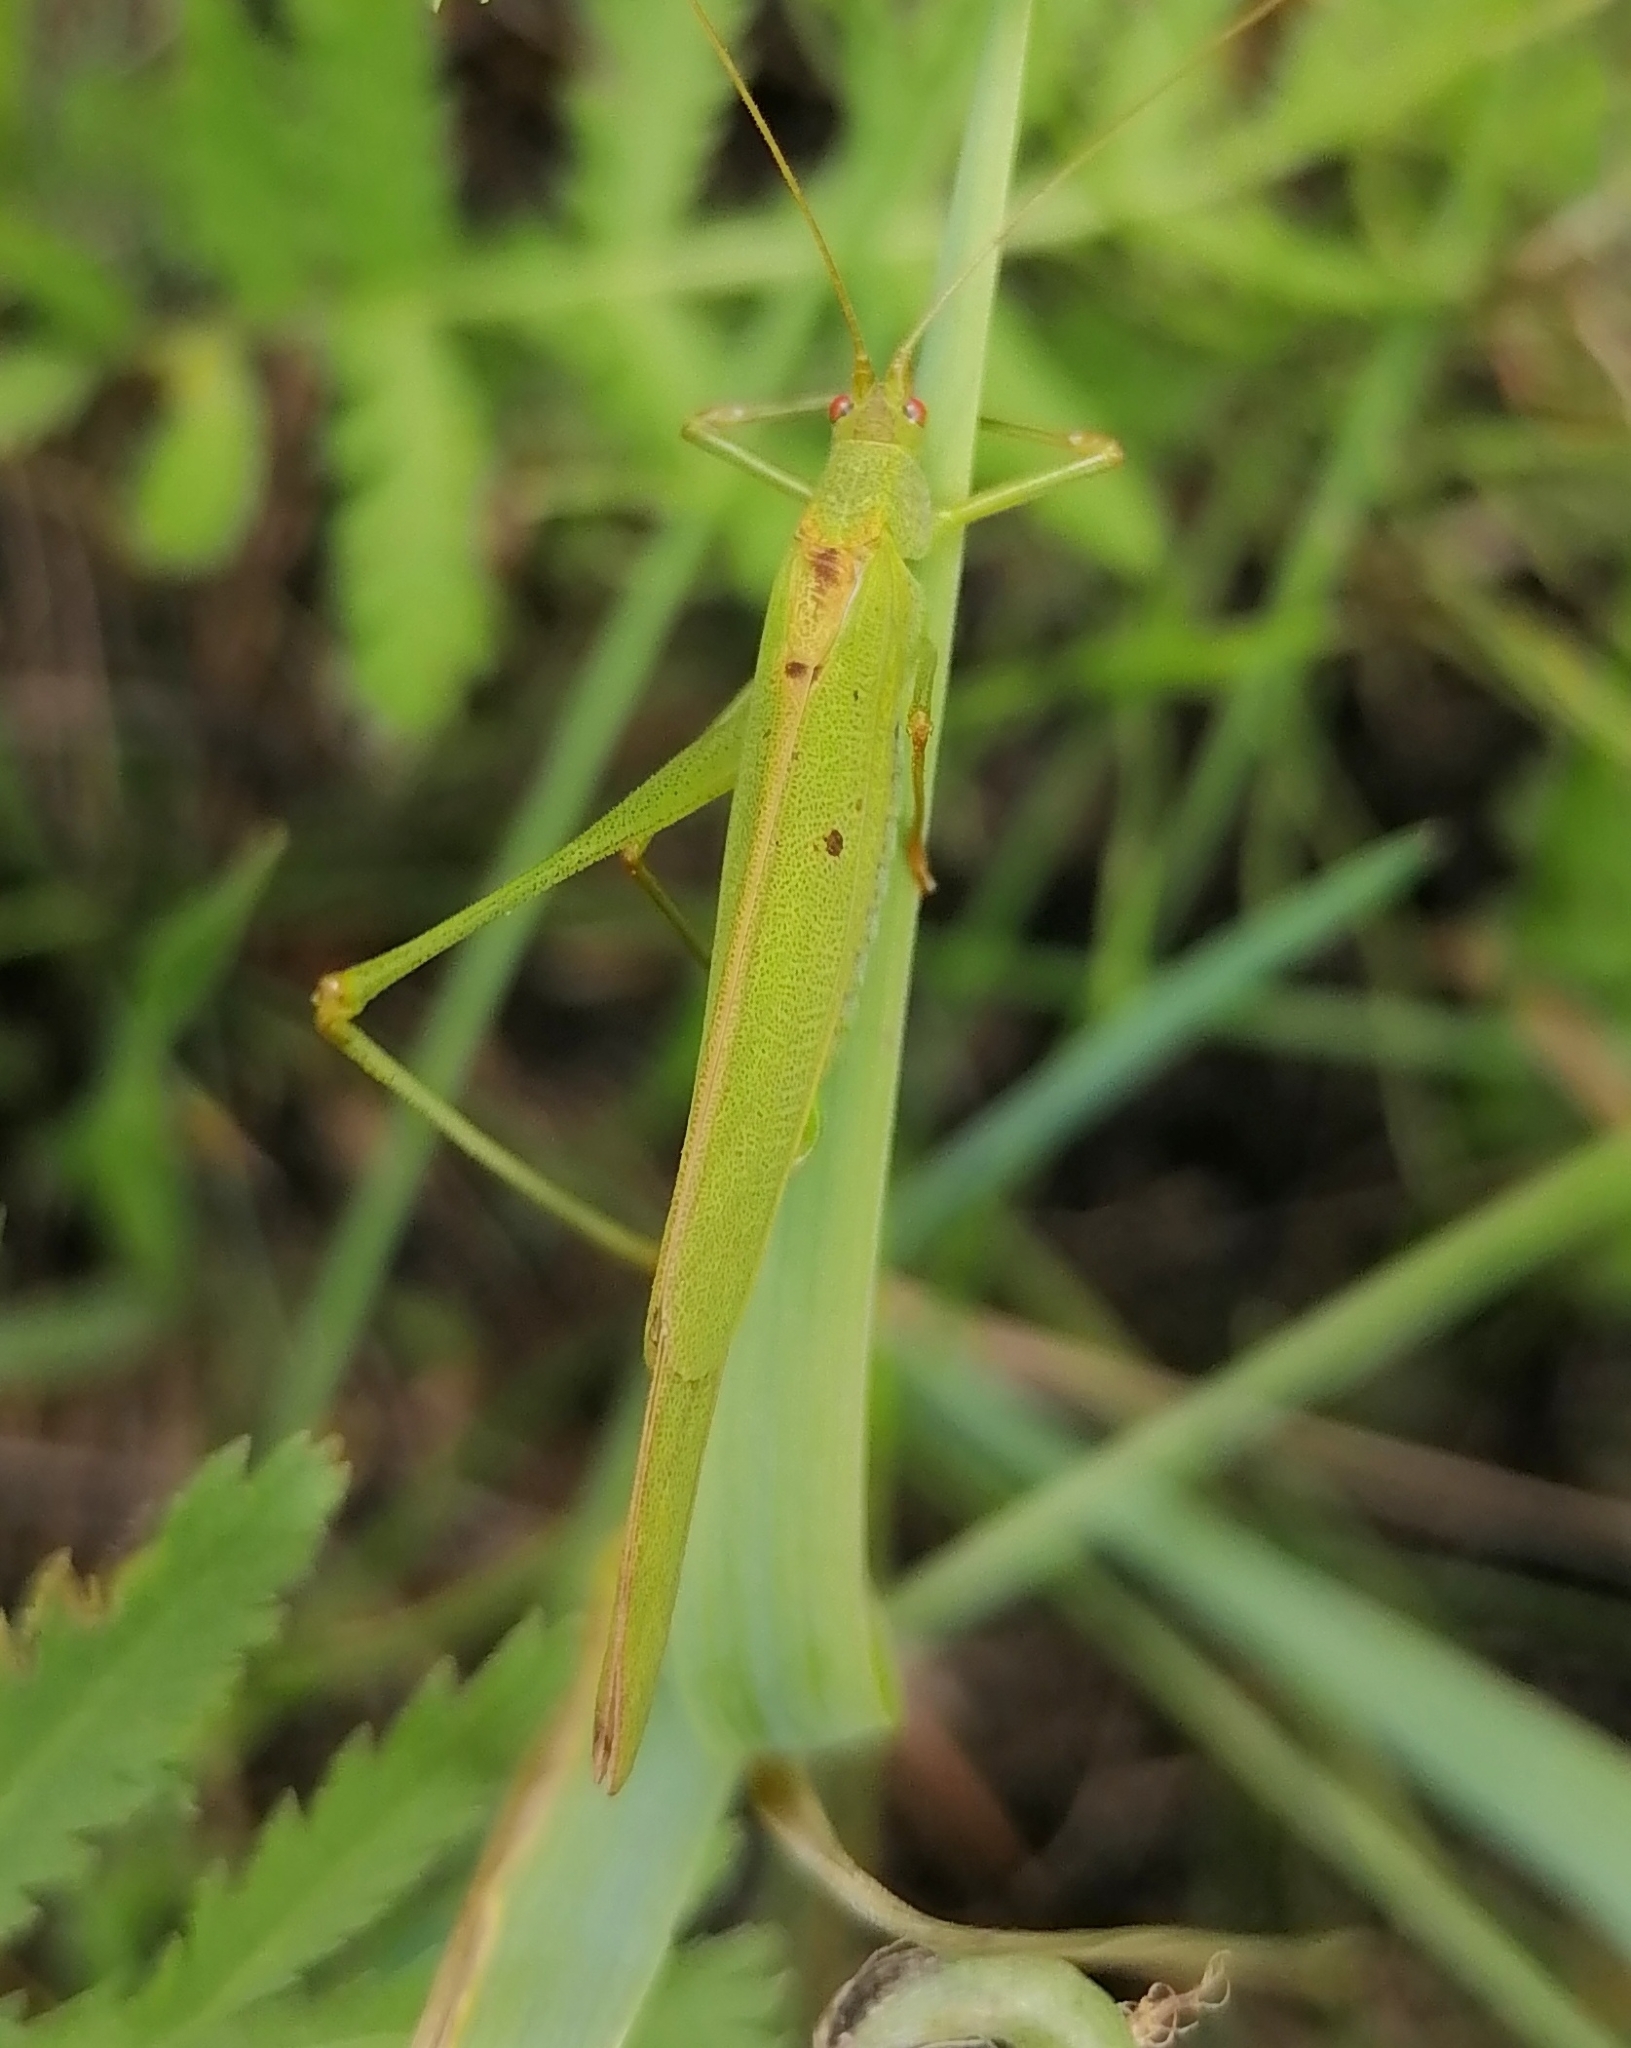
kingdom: Animalia
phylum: Arthropoda
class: Insecta
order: Orthoptera
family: Tettigoniidae
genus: Phaneroptera
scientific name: Phaneroptera falcata
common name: Sickle-bearing bush-cricket
